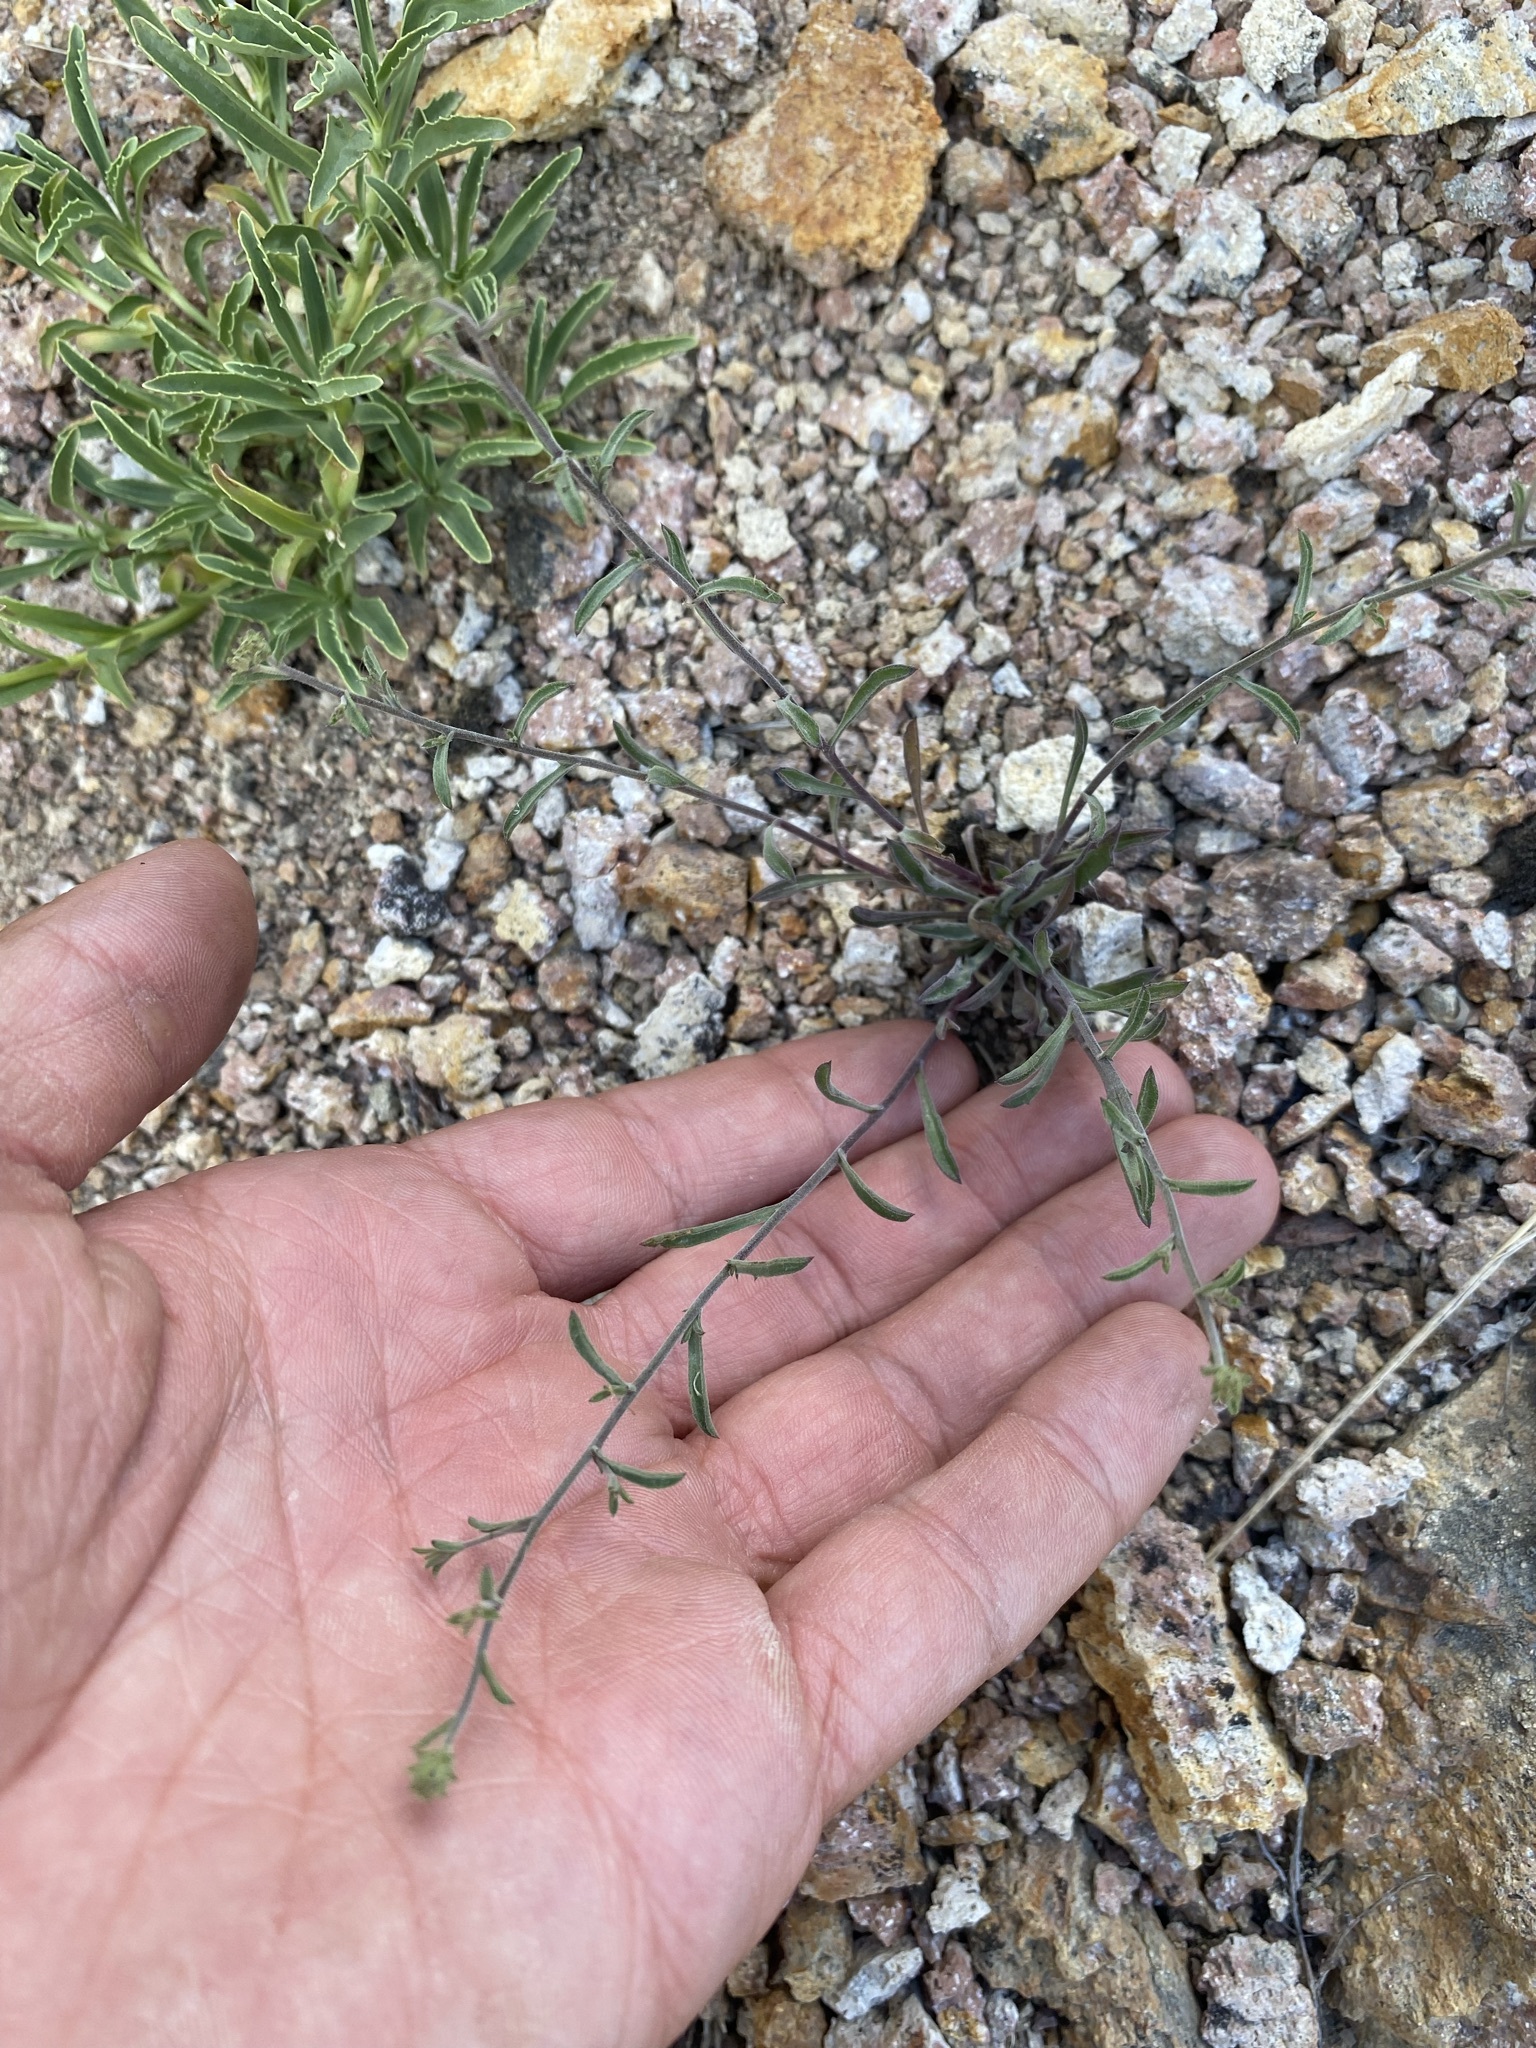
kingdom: Plantae
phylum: Tracheophyta
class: Magnoliopsida
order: Asterales
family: Asteraceae
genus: Dieteria
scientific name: Dieteria canescens
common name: Hoary-aster
